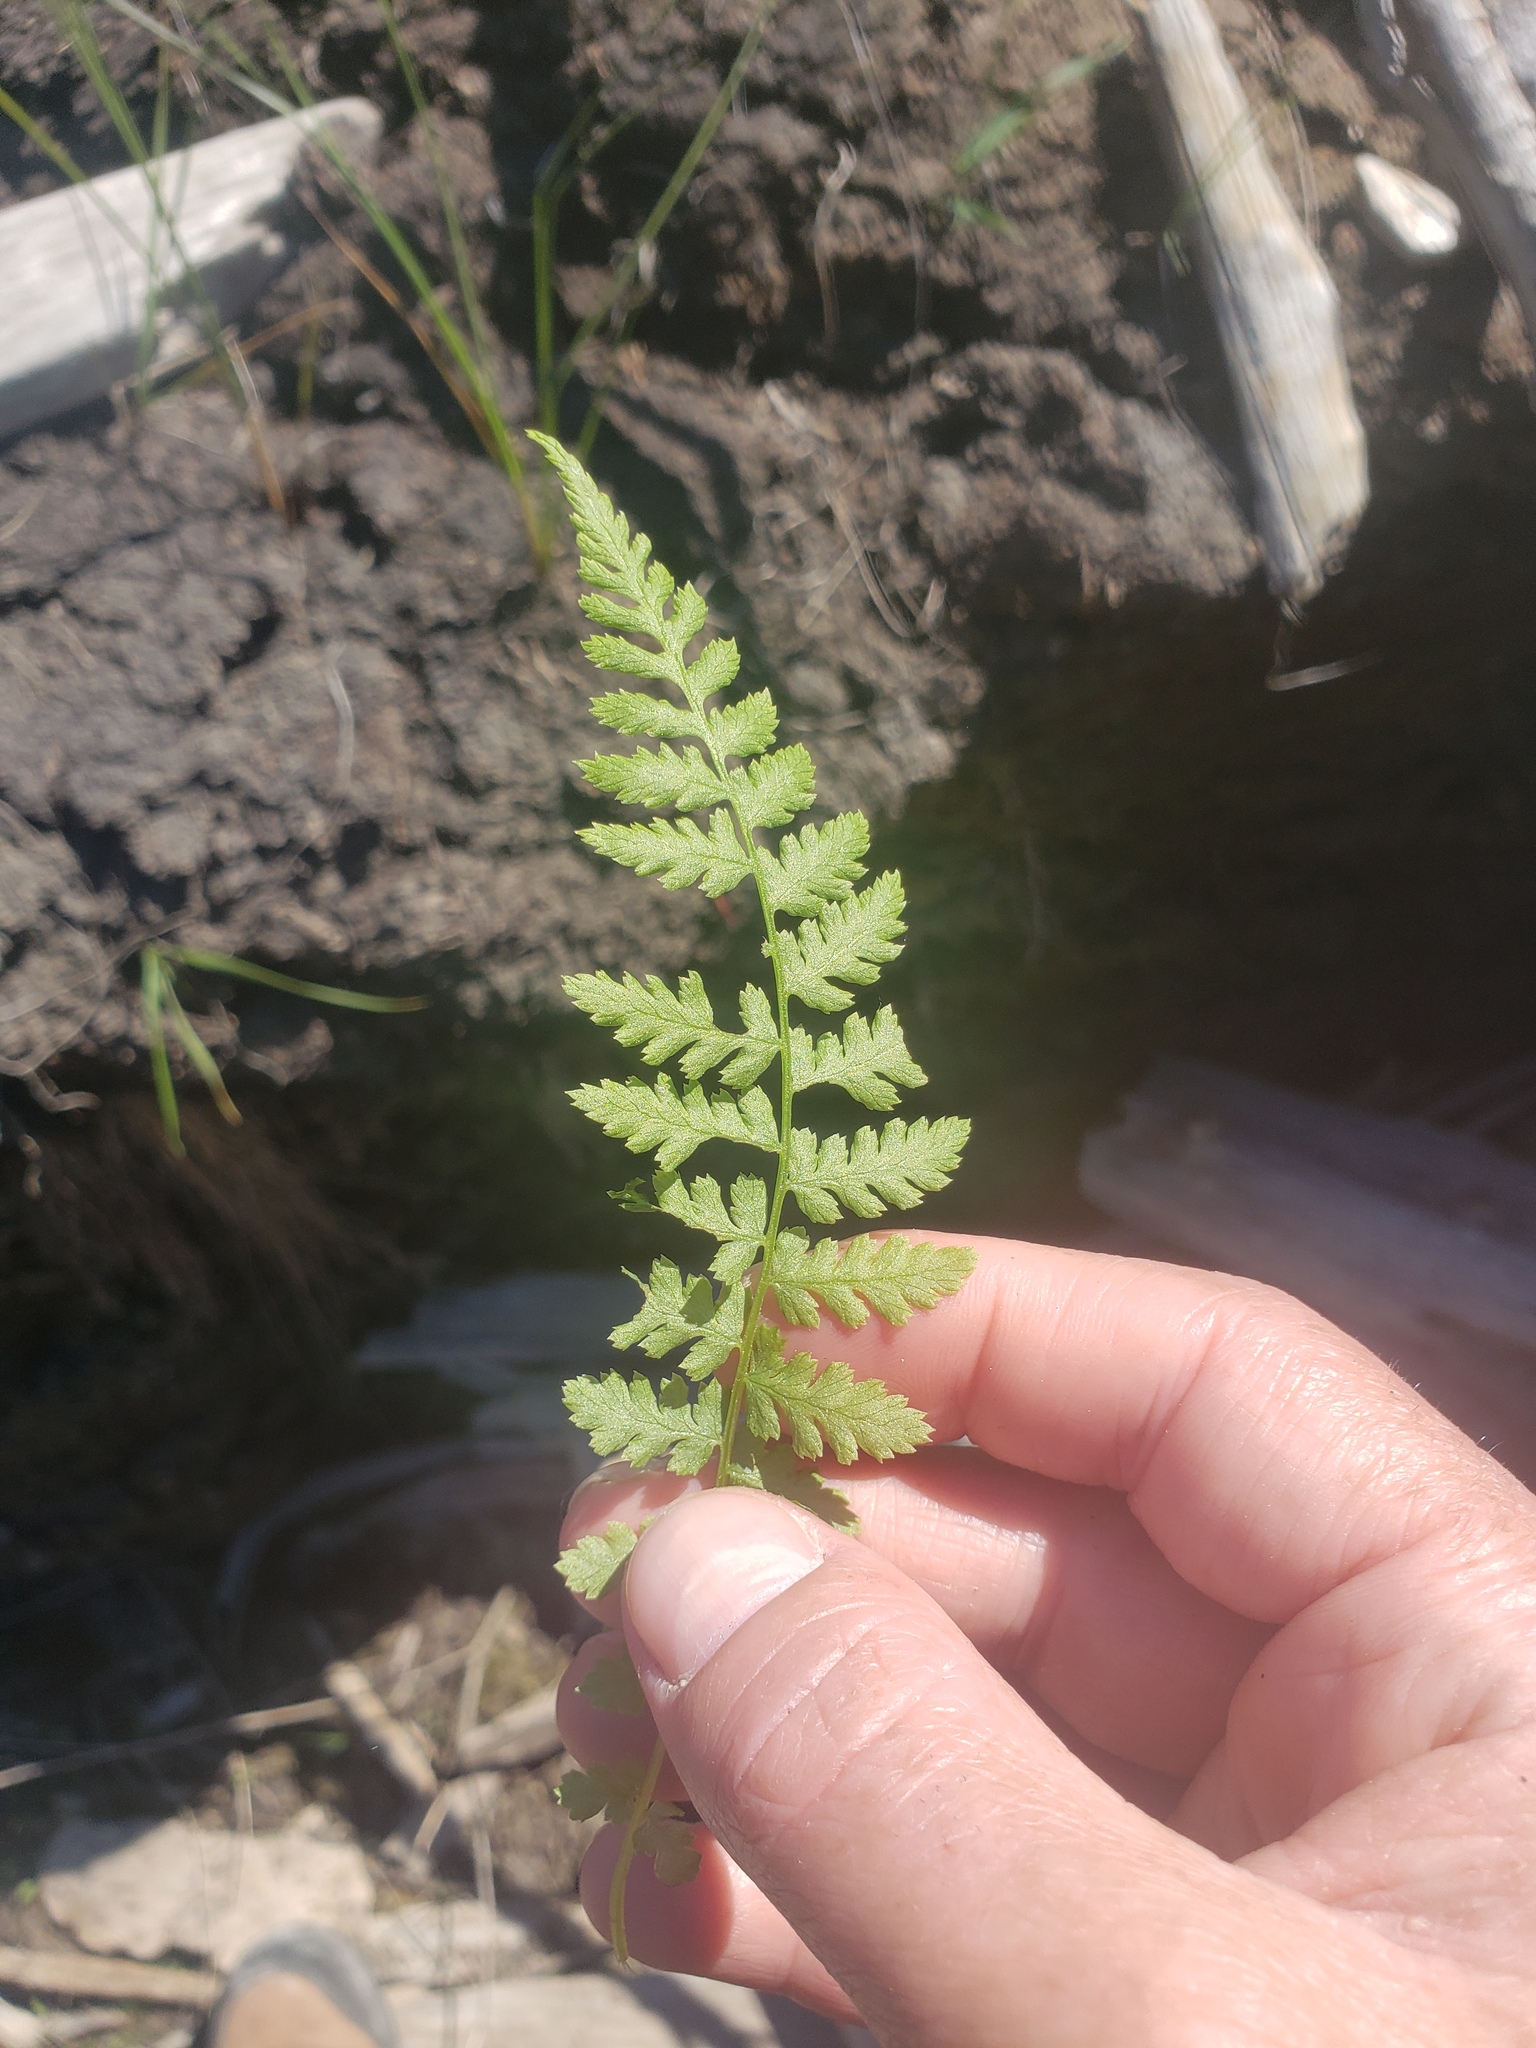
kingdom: Plantae
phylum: Tracheophyta
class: Polypodiopsida
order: Polypodiales
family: Athyriaceae
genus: Athyrium
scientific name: Athyrium filix-femina
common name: Lady fern
